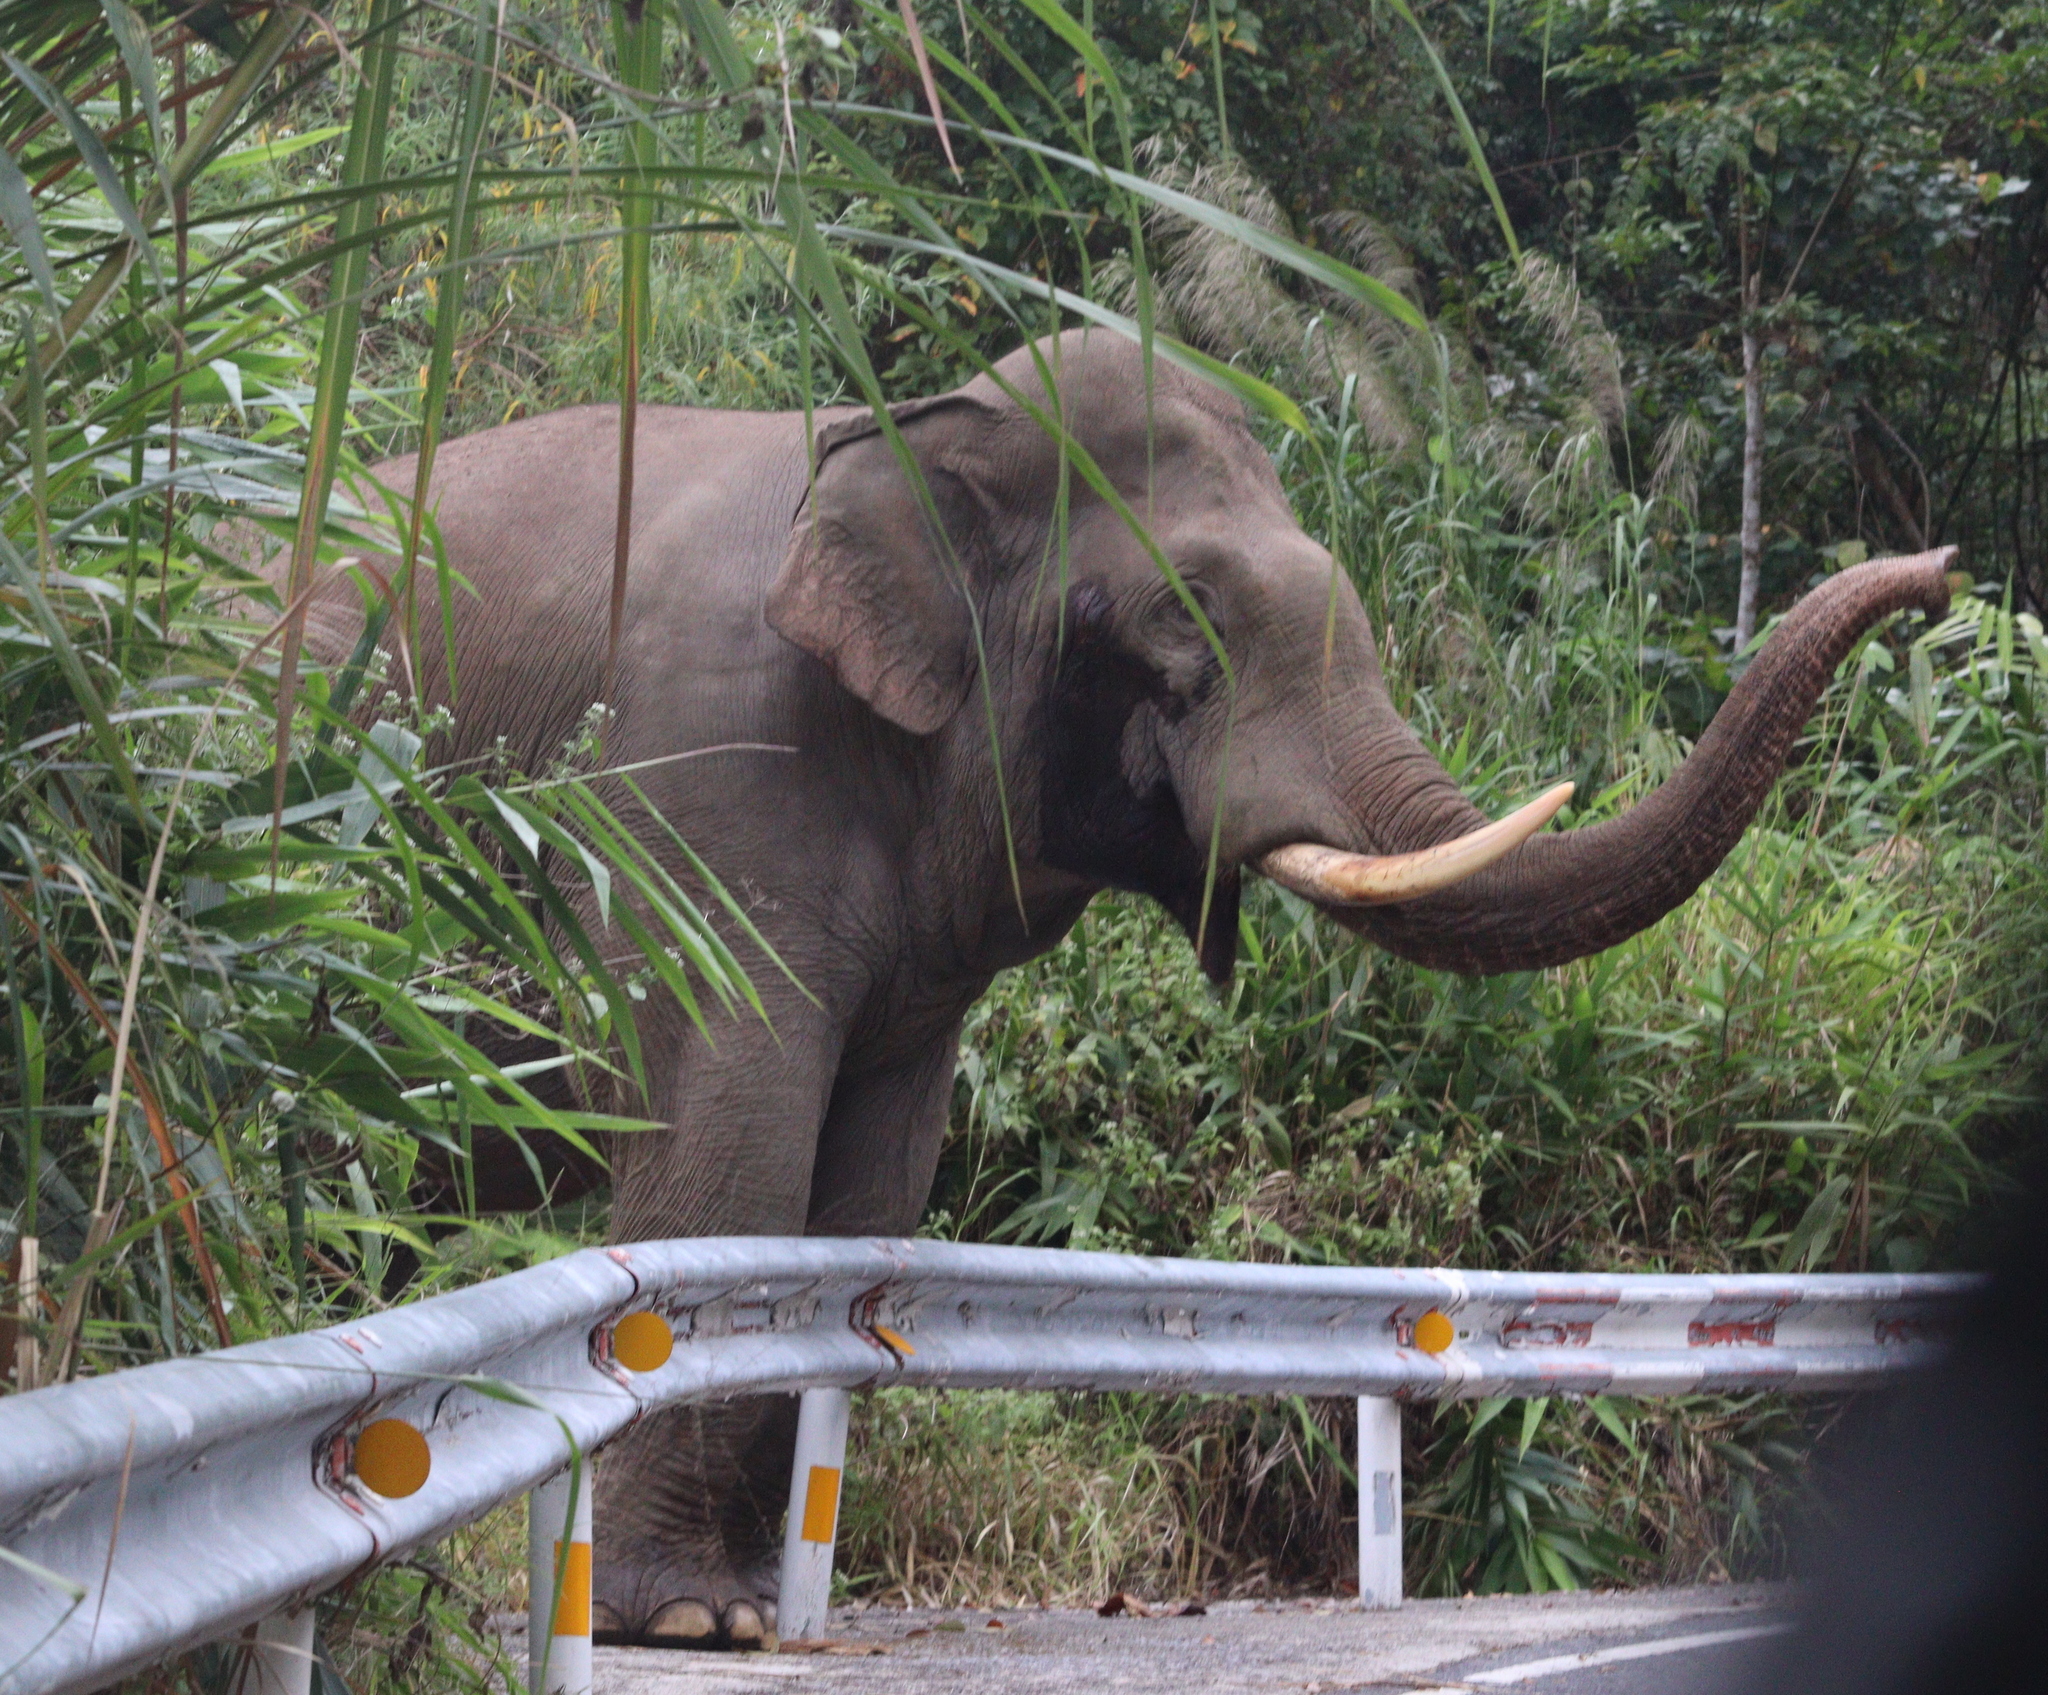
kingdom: Animalia
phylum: Chordata
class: Mammalia
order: Proboscidea
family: Elephantidae
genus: Elephas
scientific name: Elephas maximus
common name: Asian elephant
